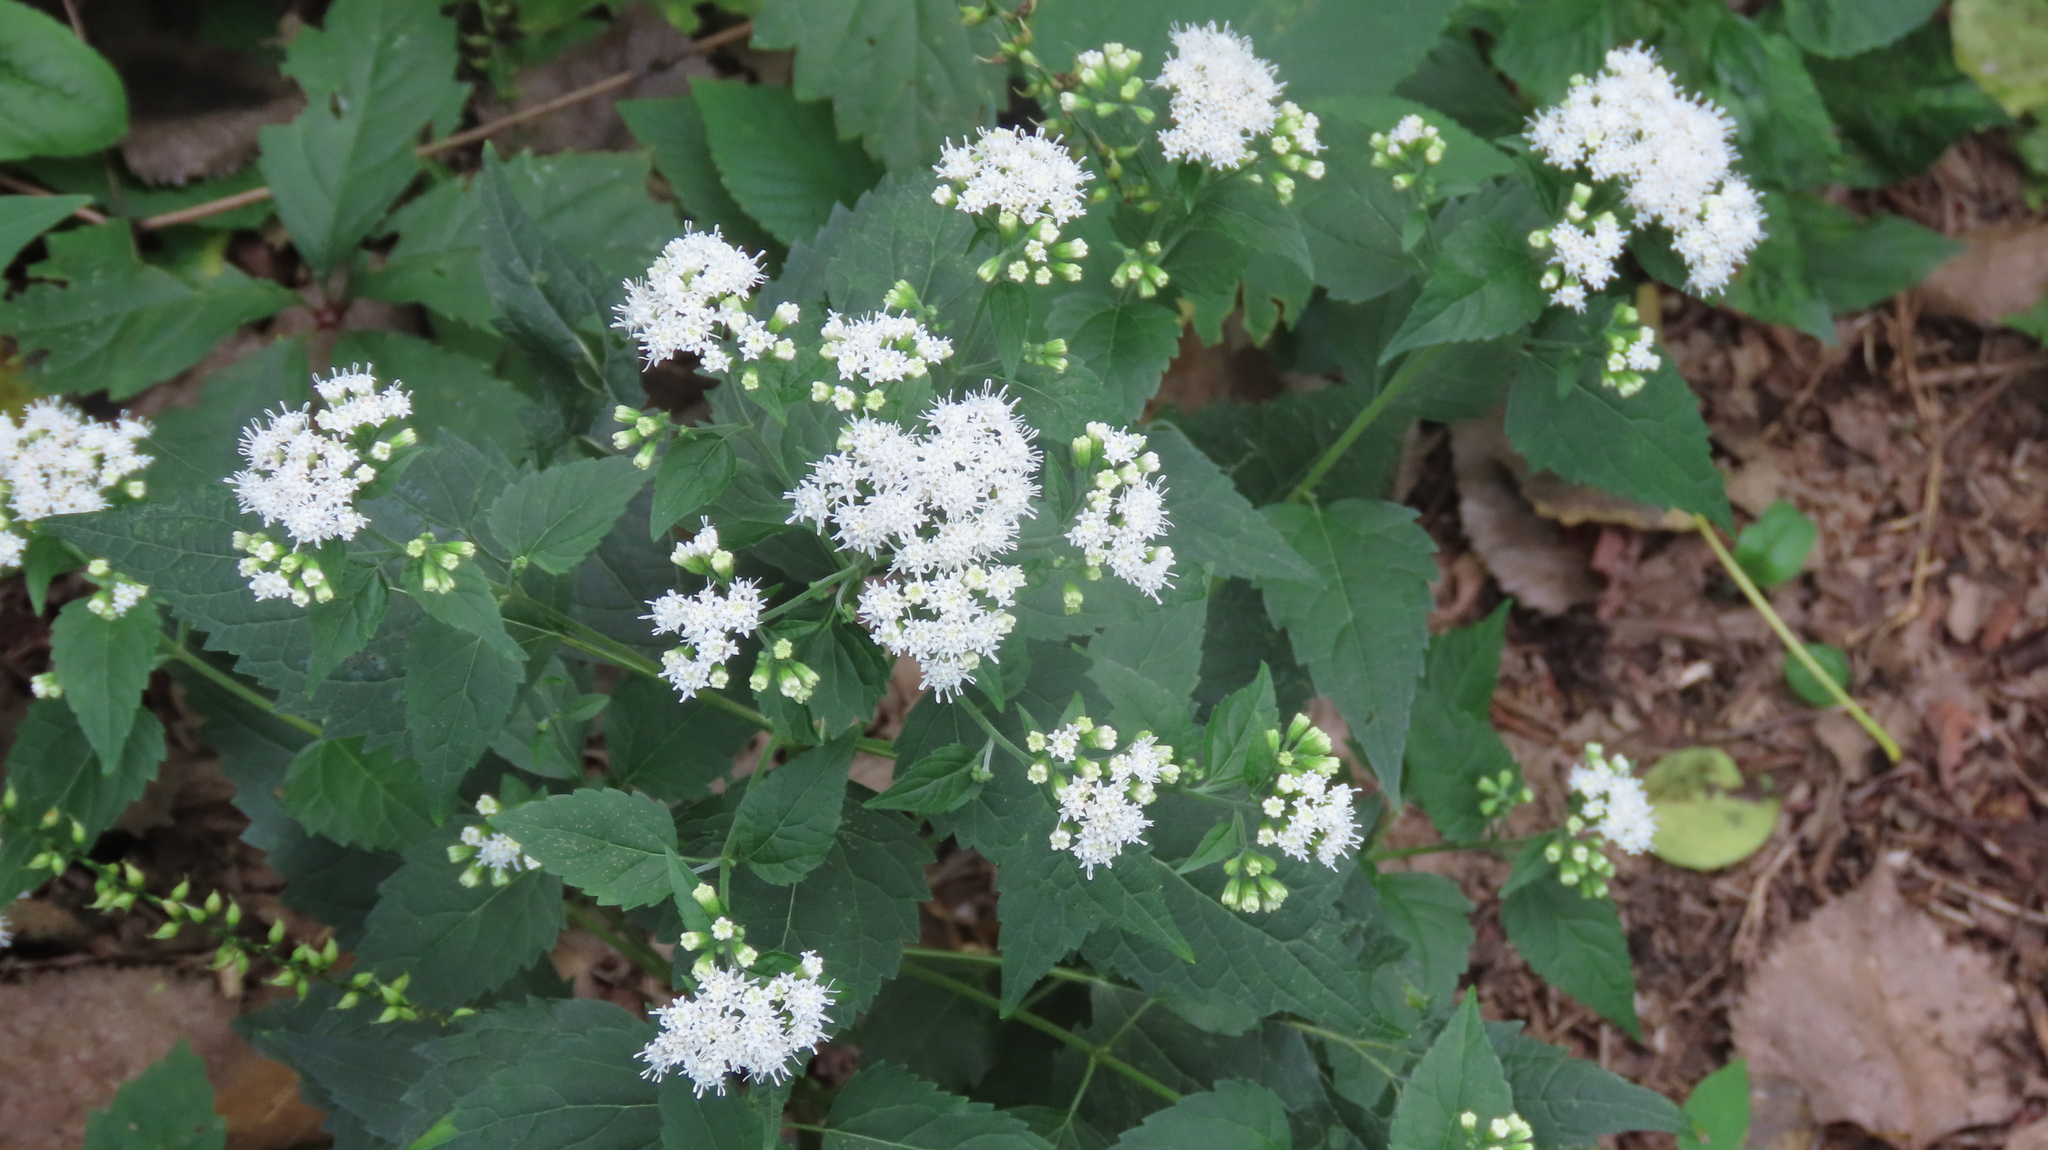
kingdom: Plantae
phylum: Tracheophyta
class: Magnoliopsida
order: Asterales
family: Asteraceae
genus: Ageratina
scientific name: Ageratina altissima
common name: White snakeroot
